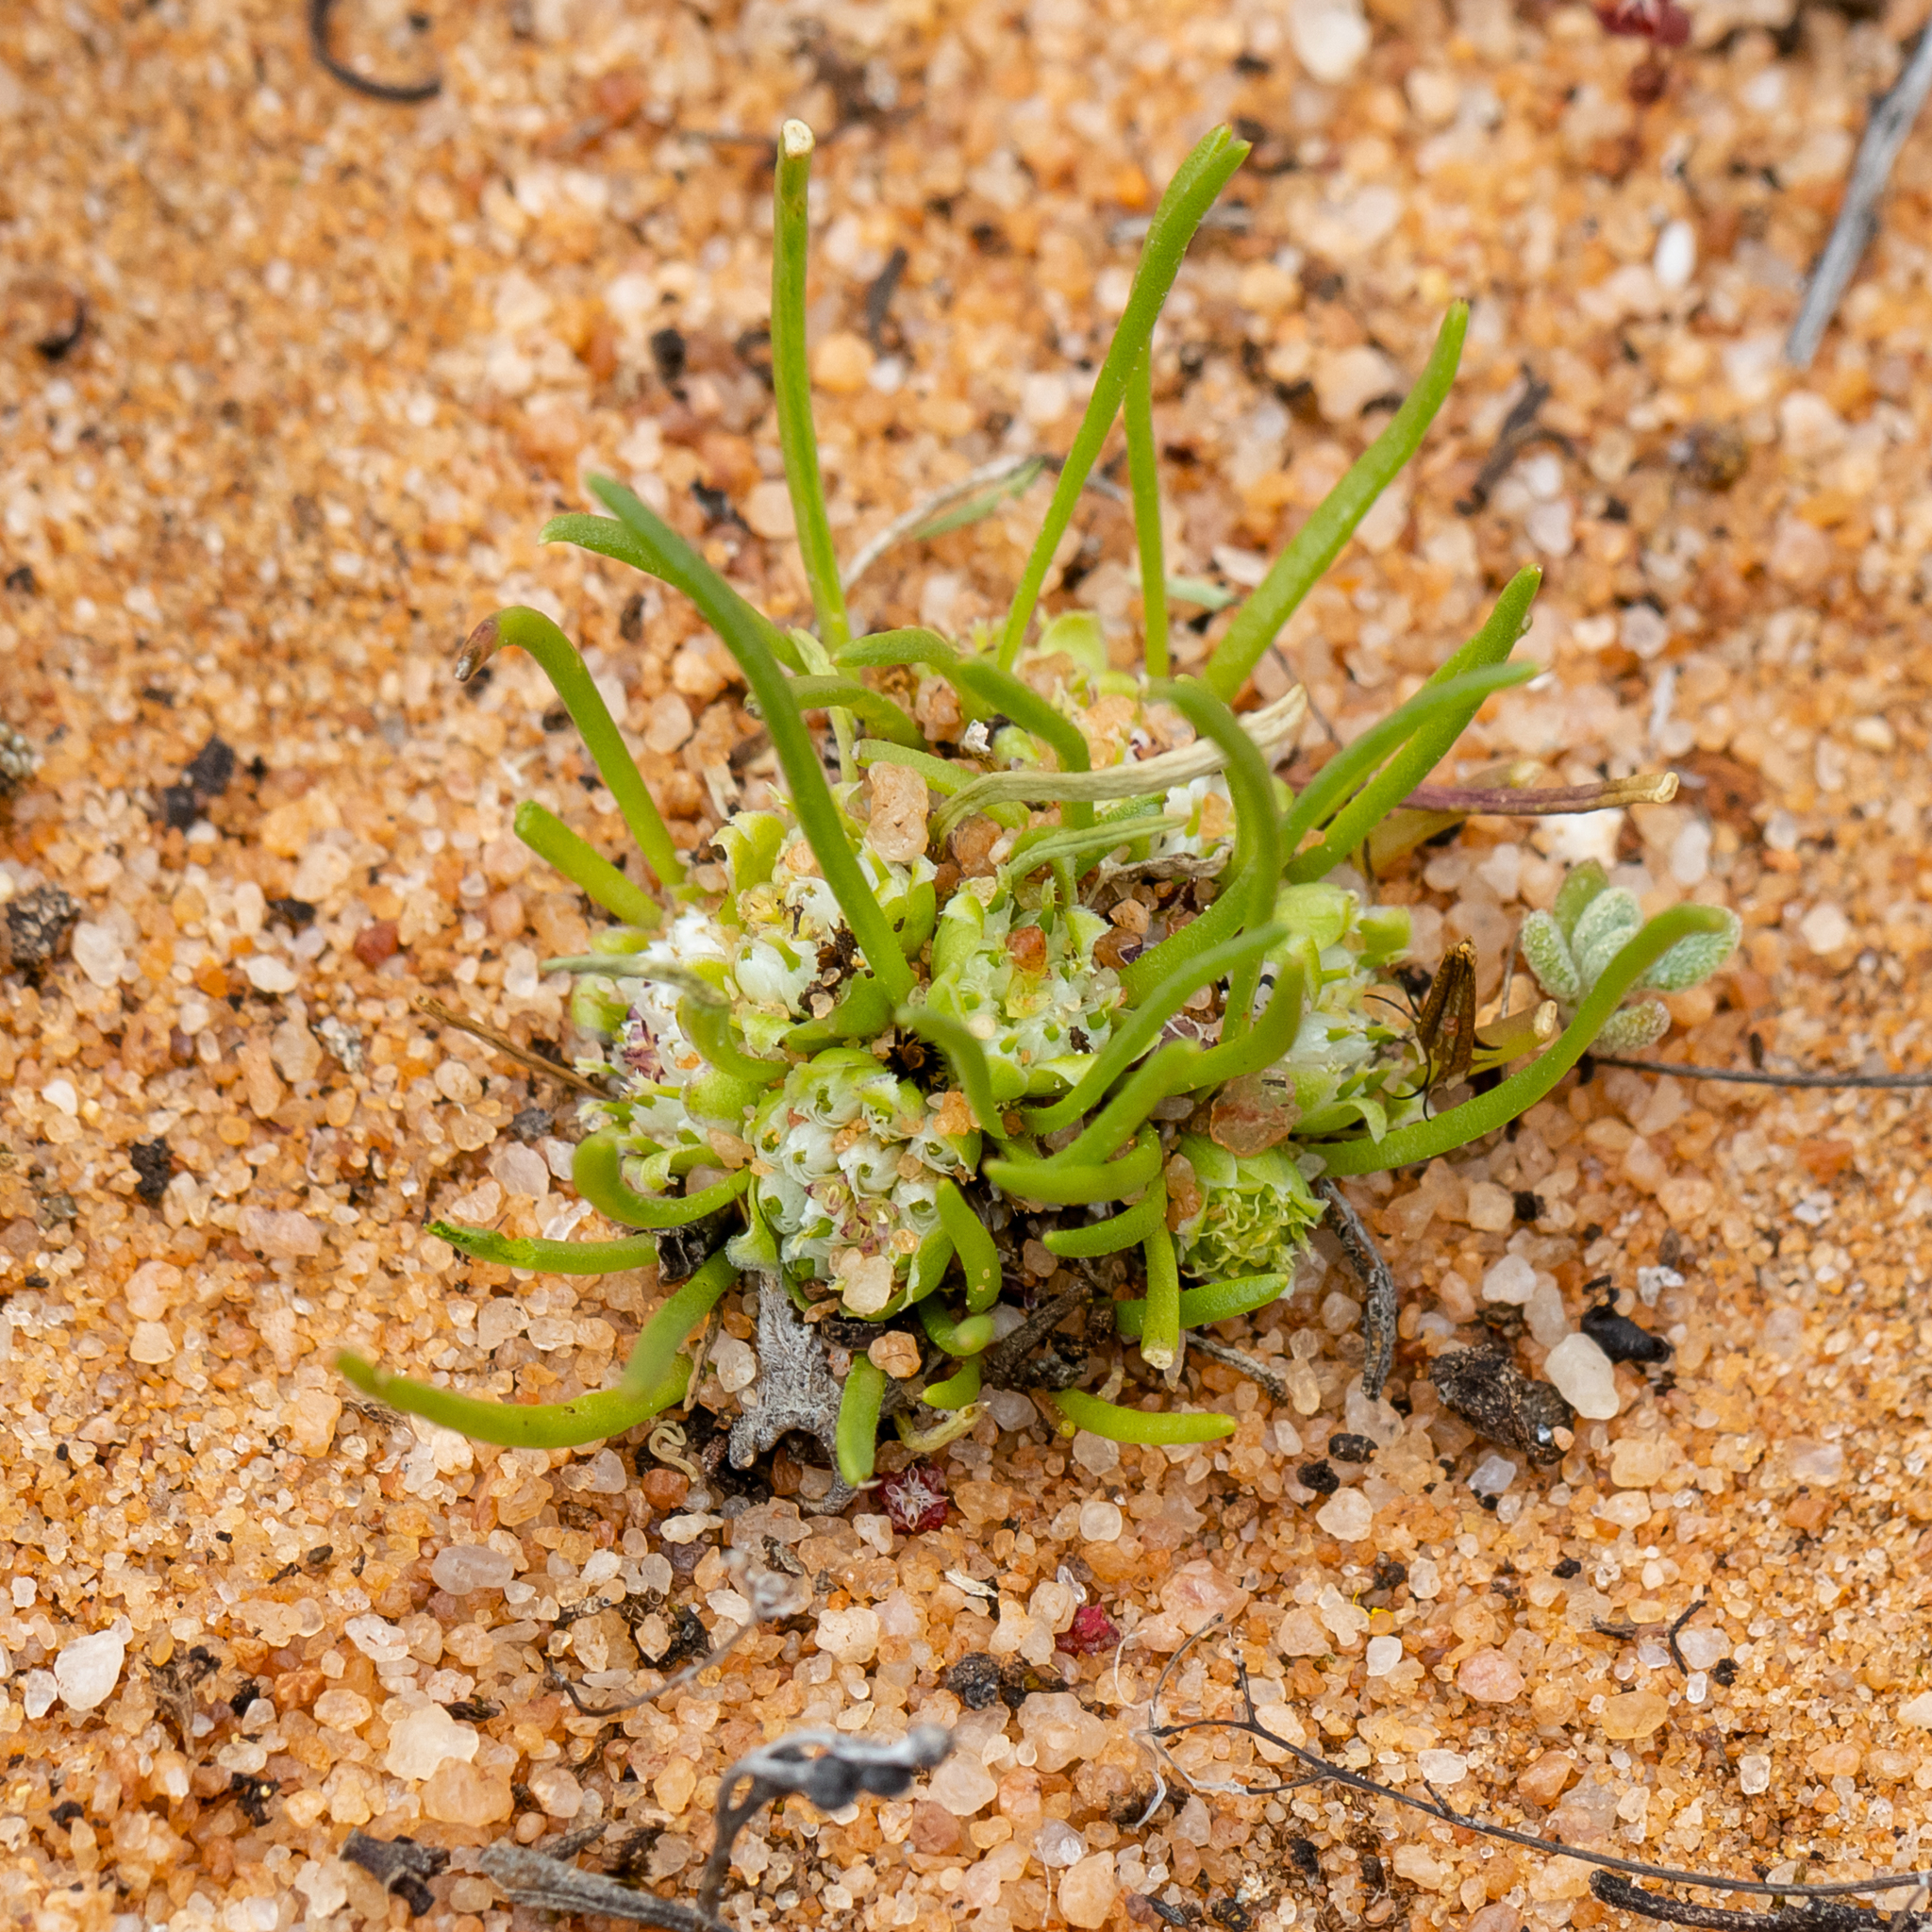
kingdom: Plantae
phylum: Tracheophyta
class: Magnoliopsida
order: Asterales
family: Asteraceae
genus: Isoetopsis
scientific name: Isoetopsis graminifolia
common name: Grass-cushion
